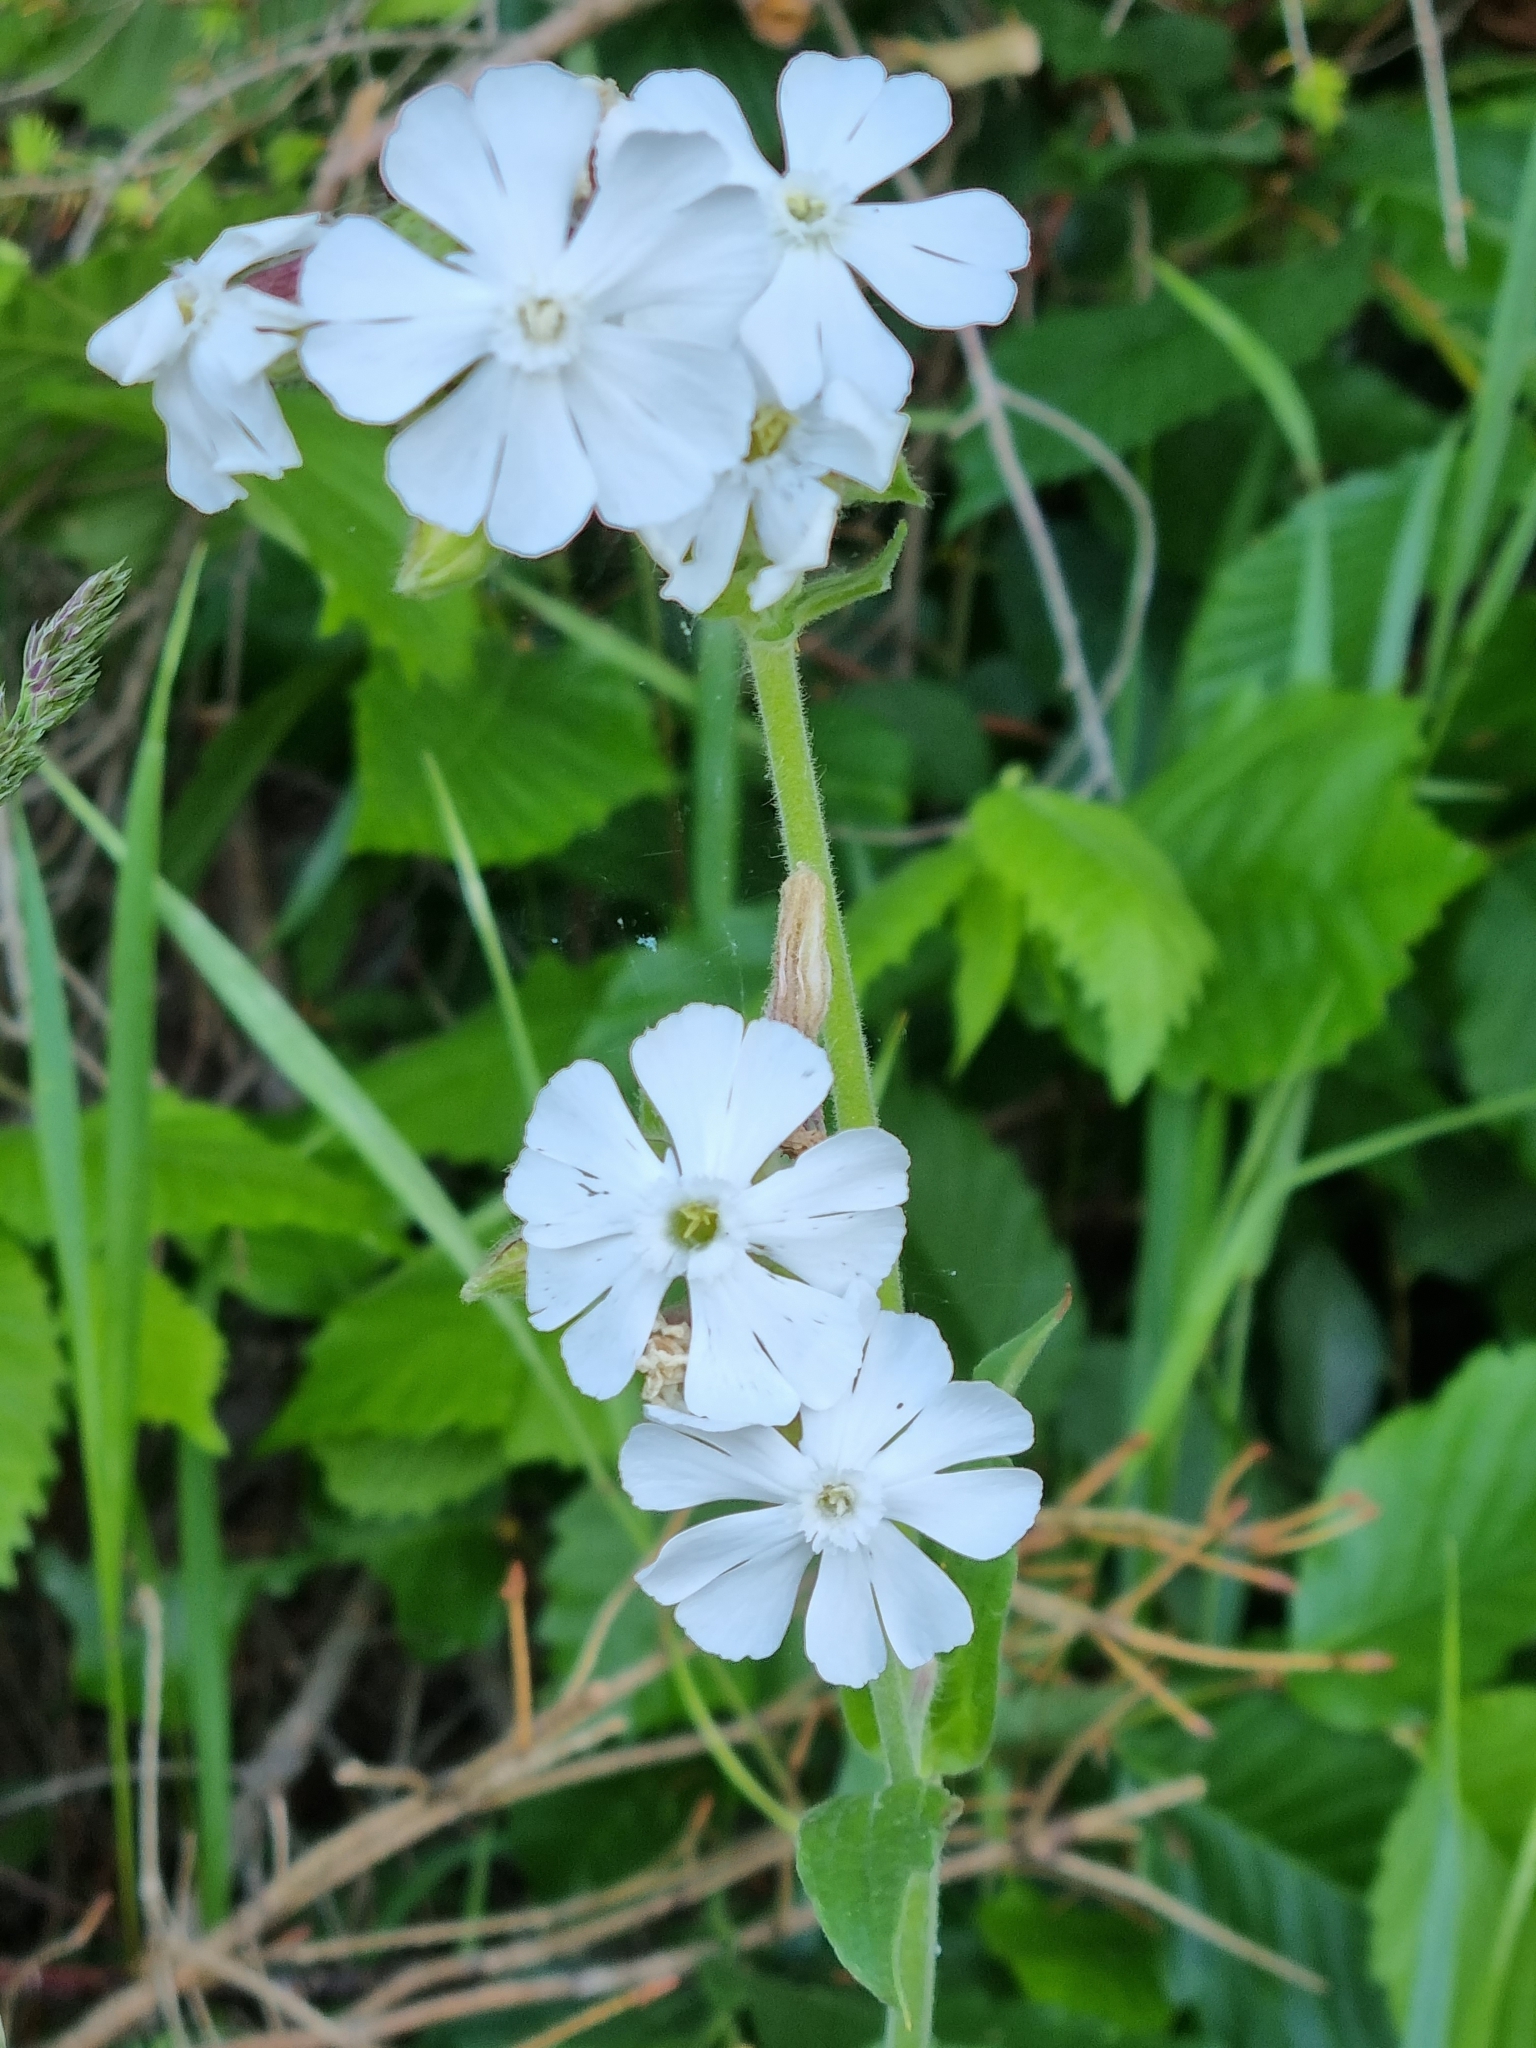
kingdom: Plantae
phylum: Tracheophyta
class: Magnoliopsida
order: Caryophyllales
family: Caryophyllaceae
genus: Silene
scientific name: Silene latifolia
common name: White campion
